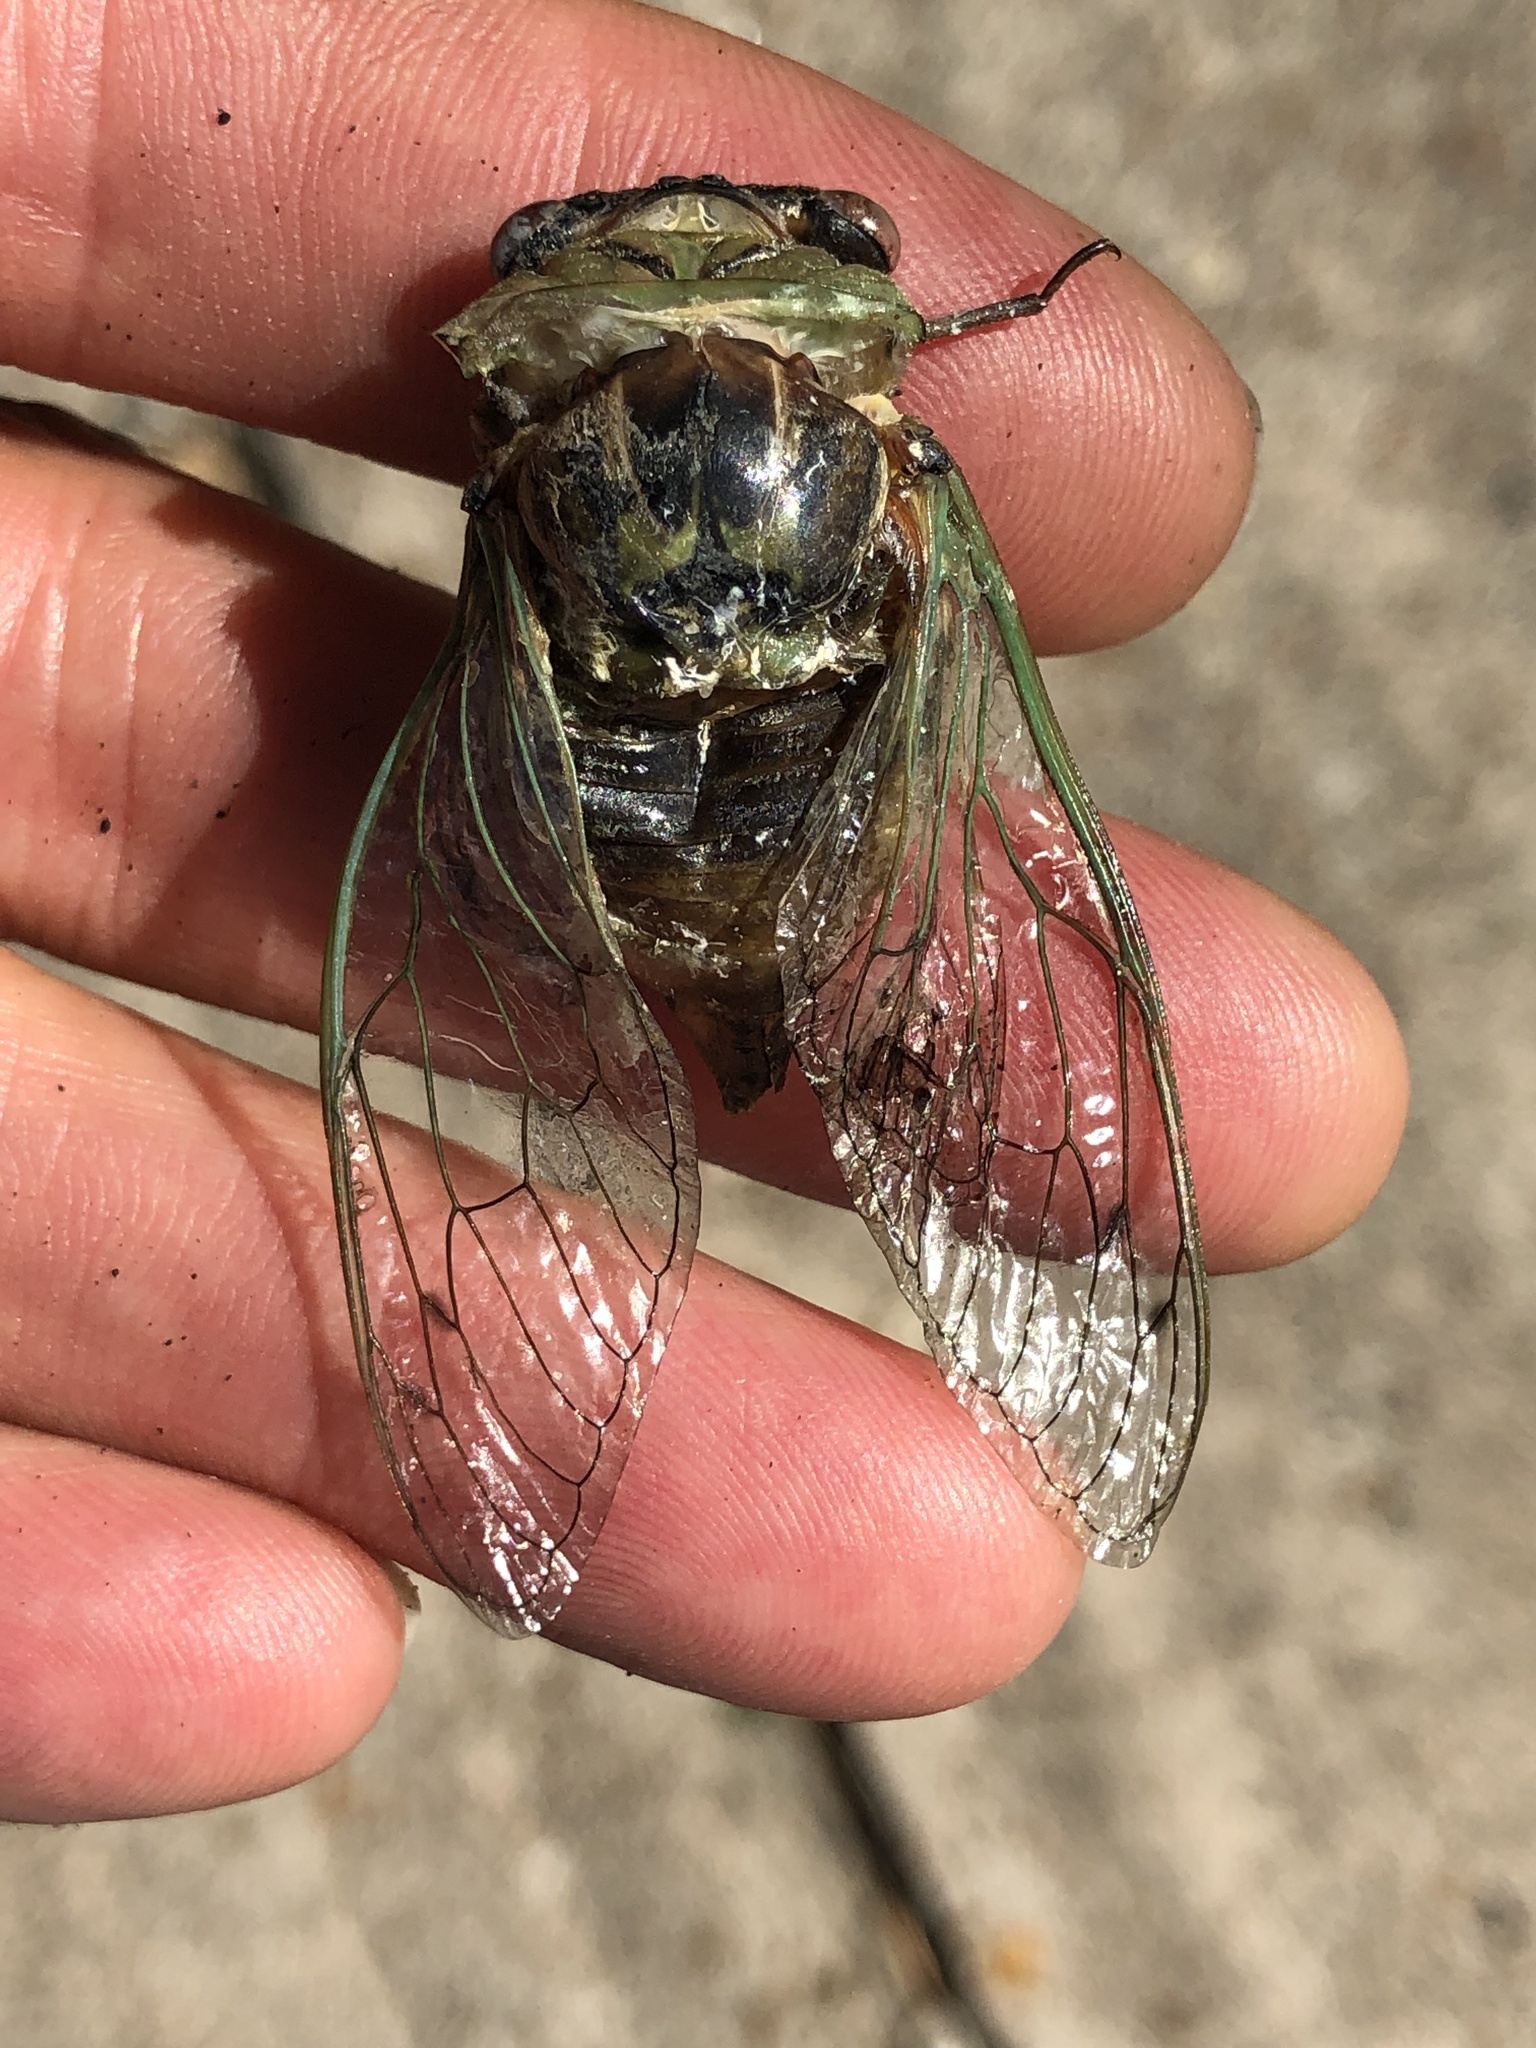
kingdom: Animalia
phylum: Arthropoda
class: Insecta
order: Hemiptera
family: Cicadidae
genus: Megatibicen
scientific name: Megatibicen resh
